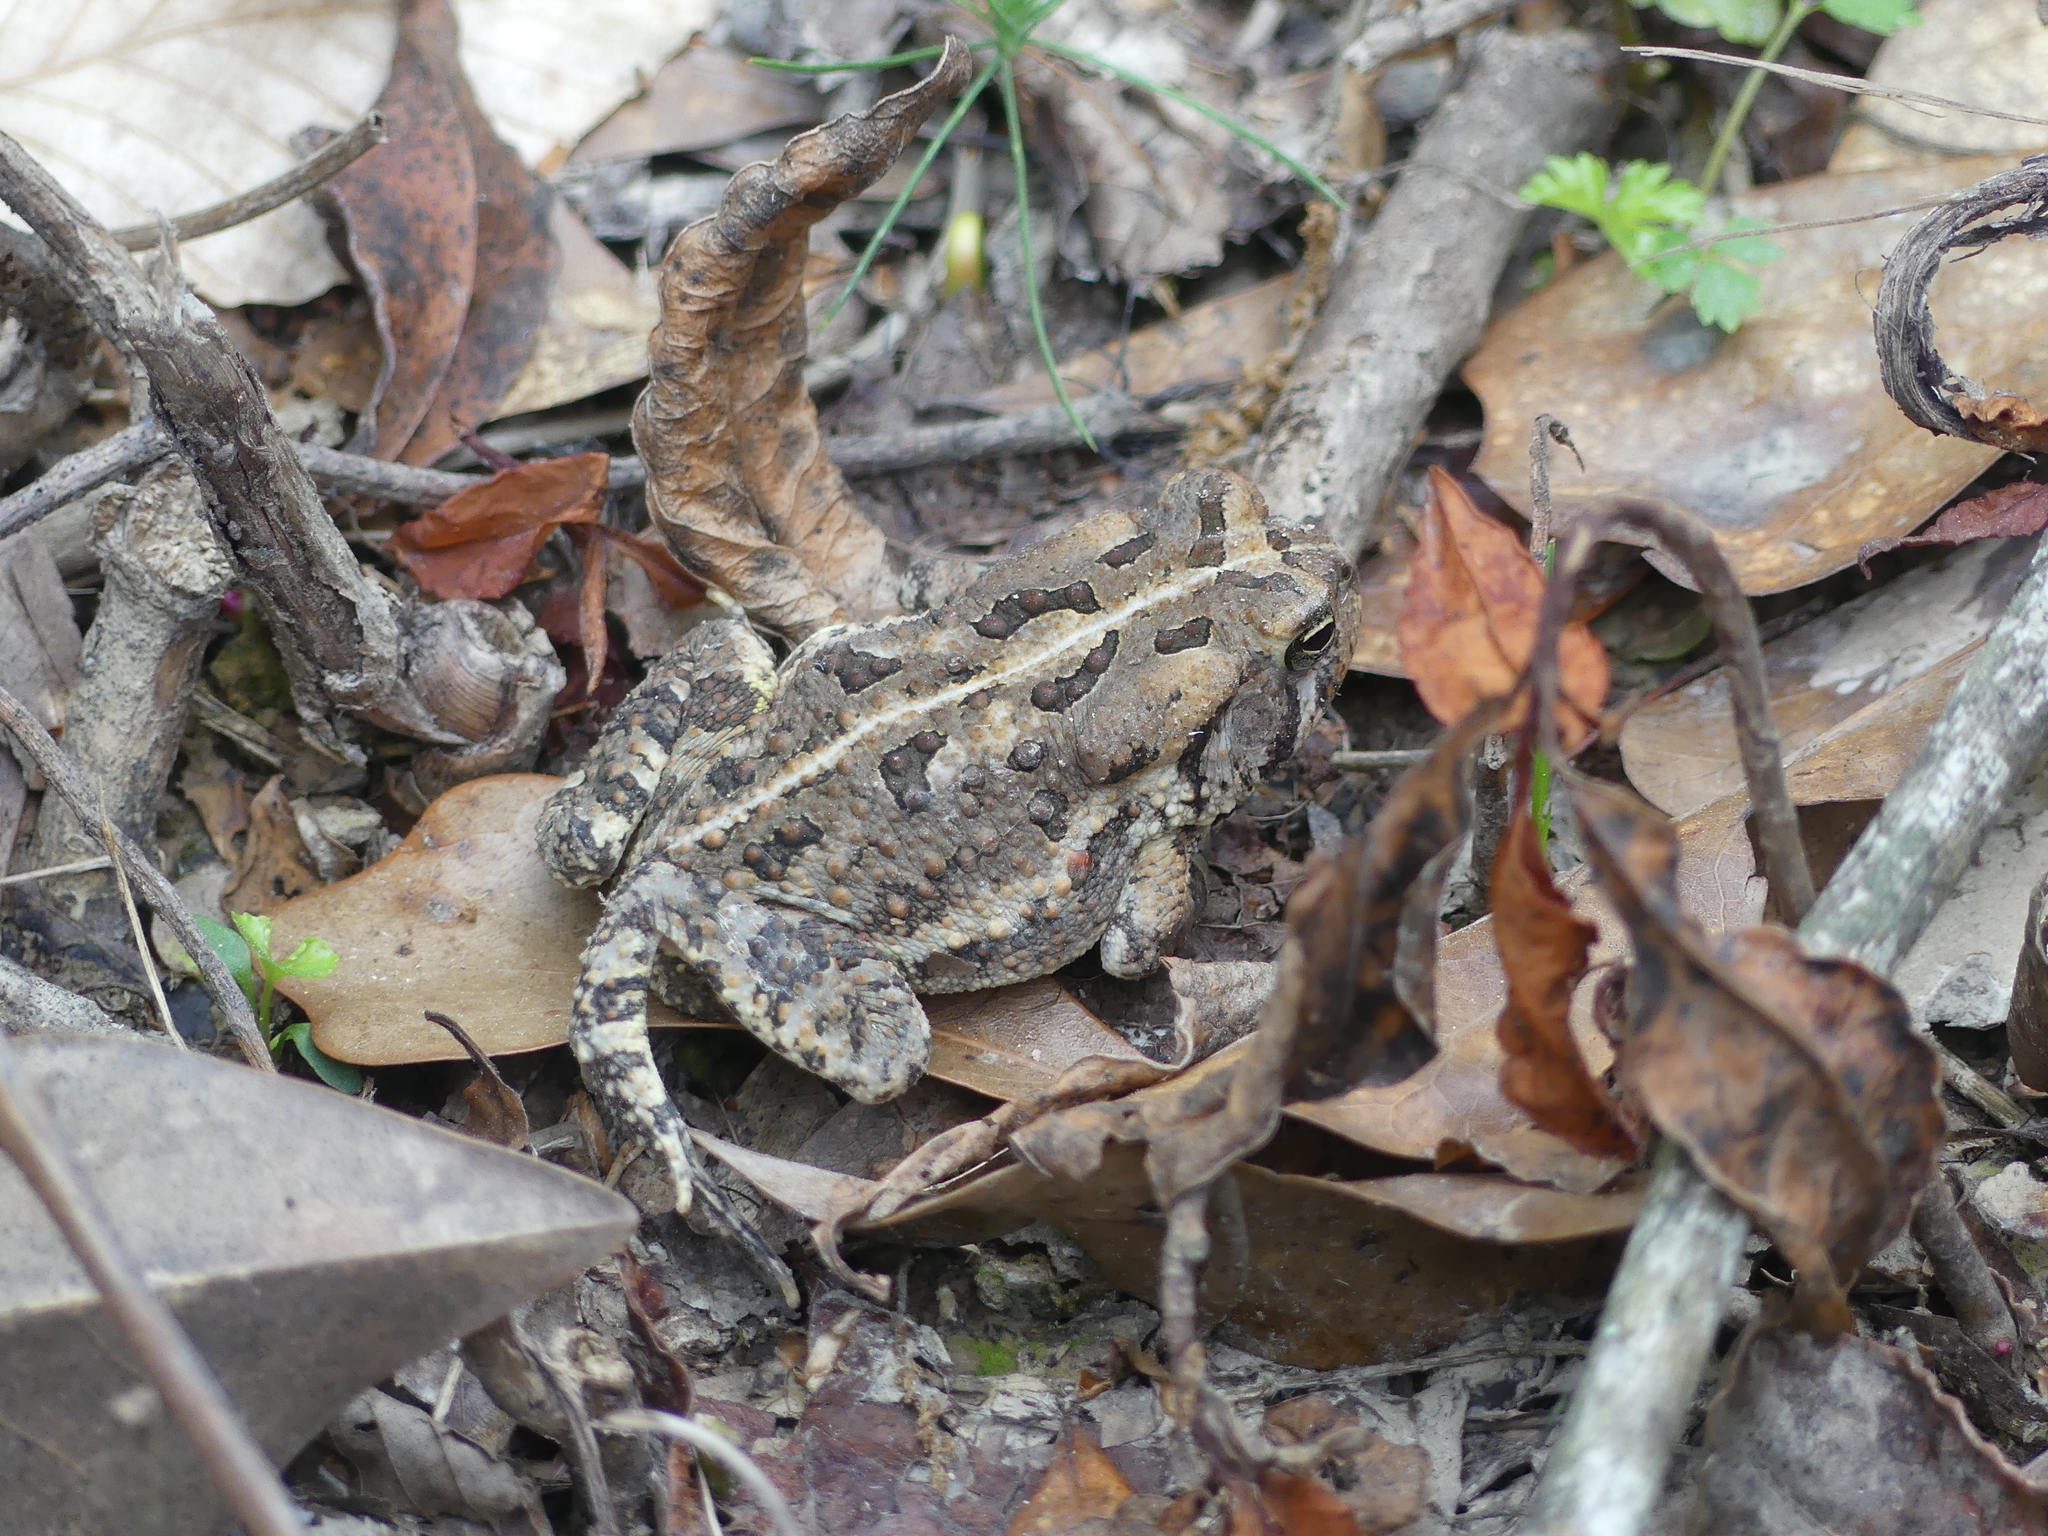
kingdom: Animalia
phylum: Chordata
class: Amphibia
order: Anura
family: Bufonidae
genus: Anaxyrus
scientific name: Anaxyrus fowleri
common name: Fowler's toad
